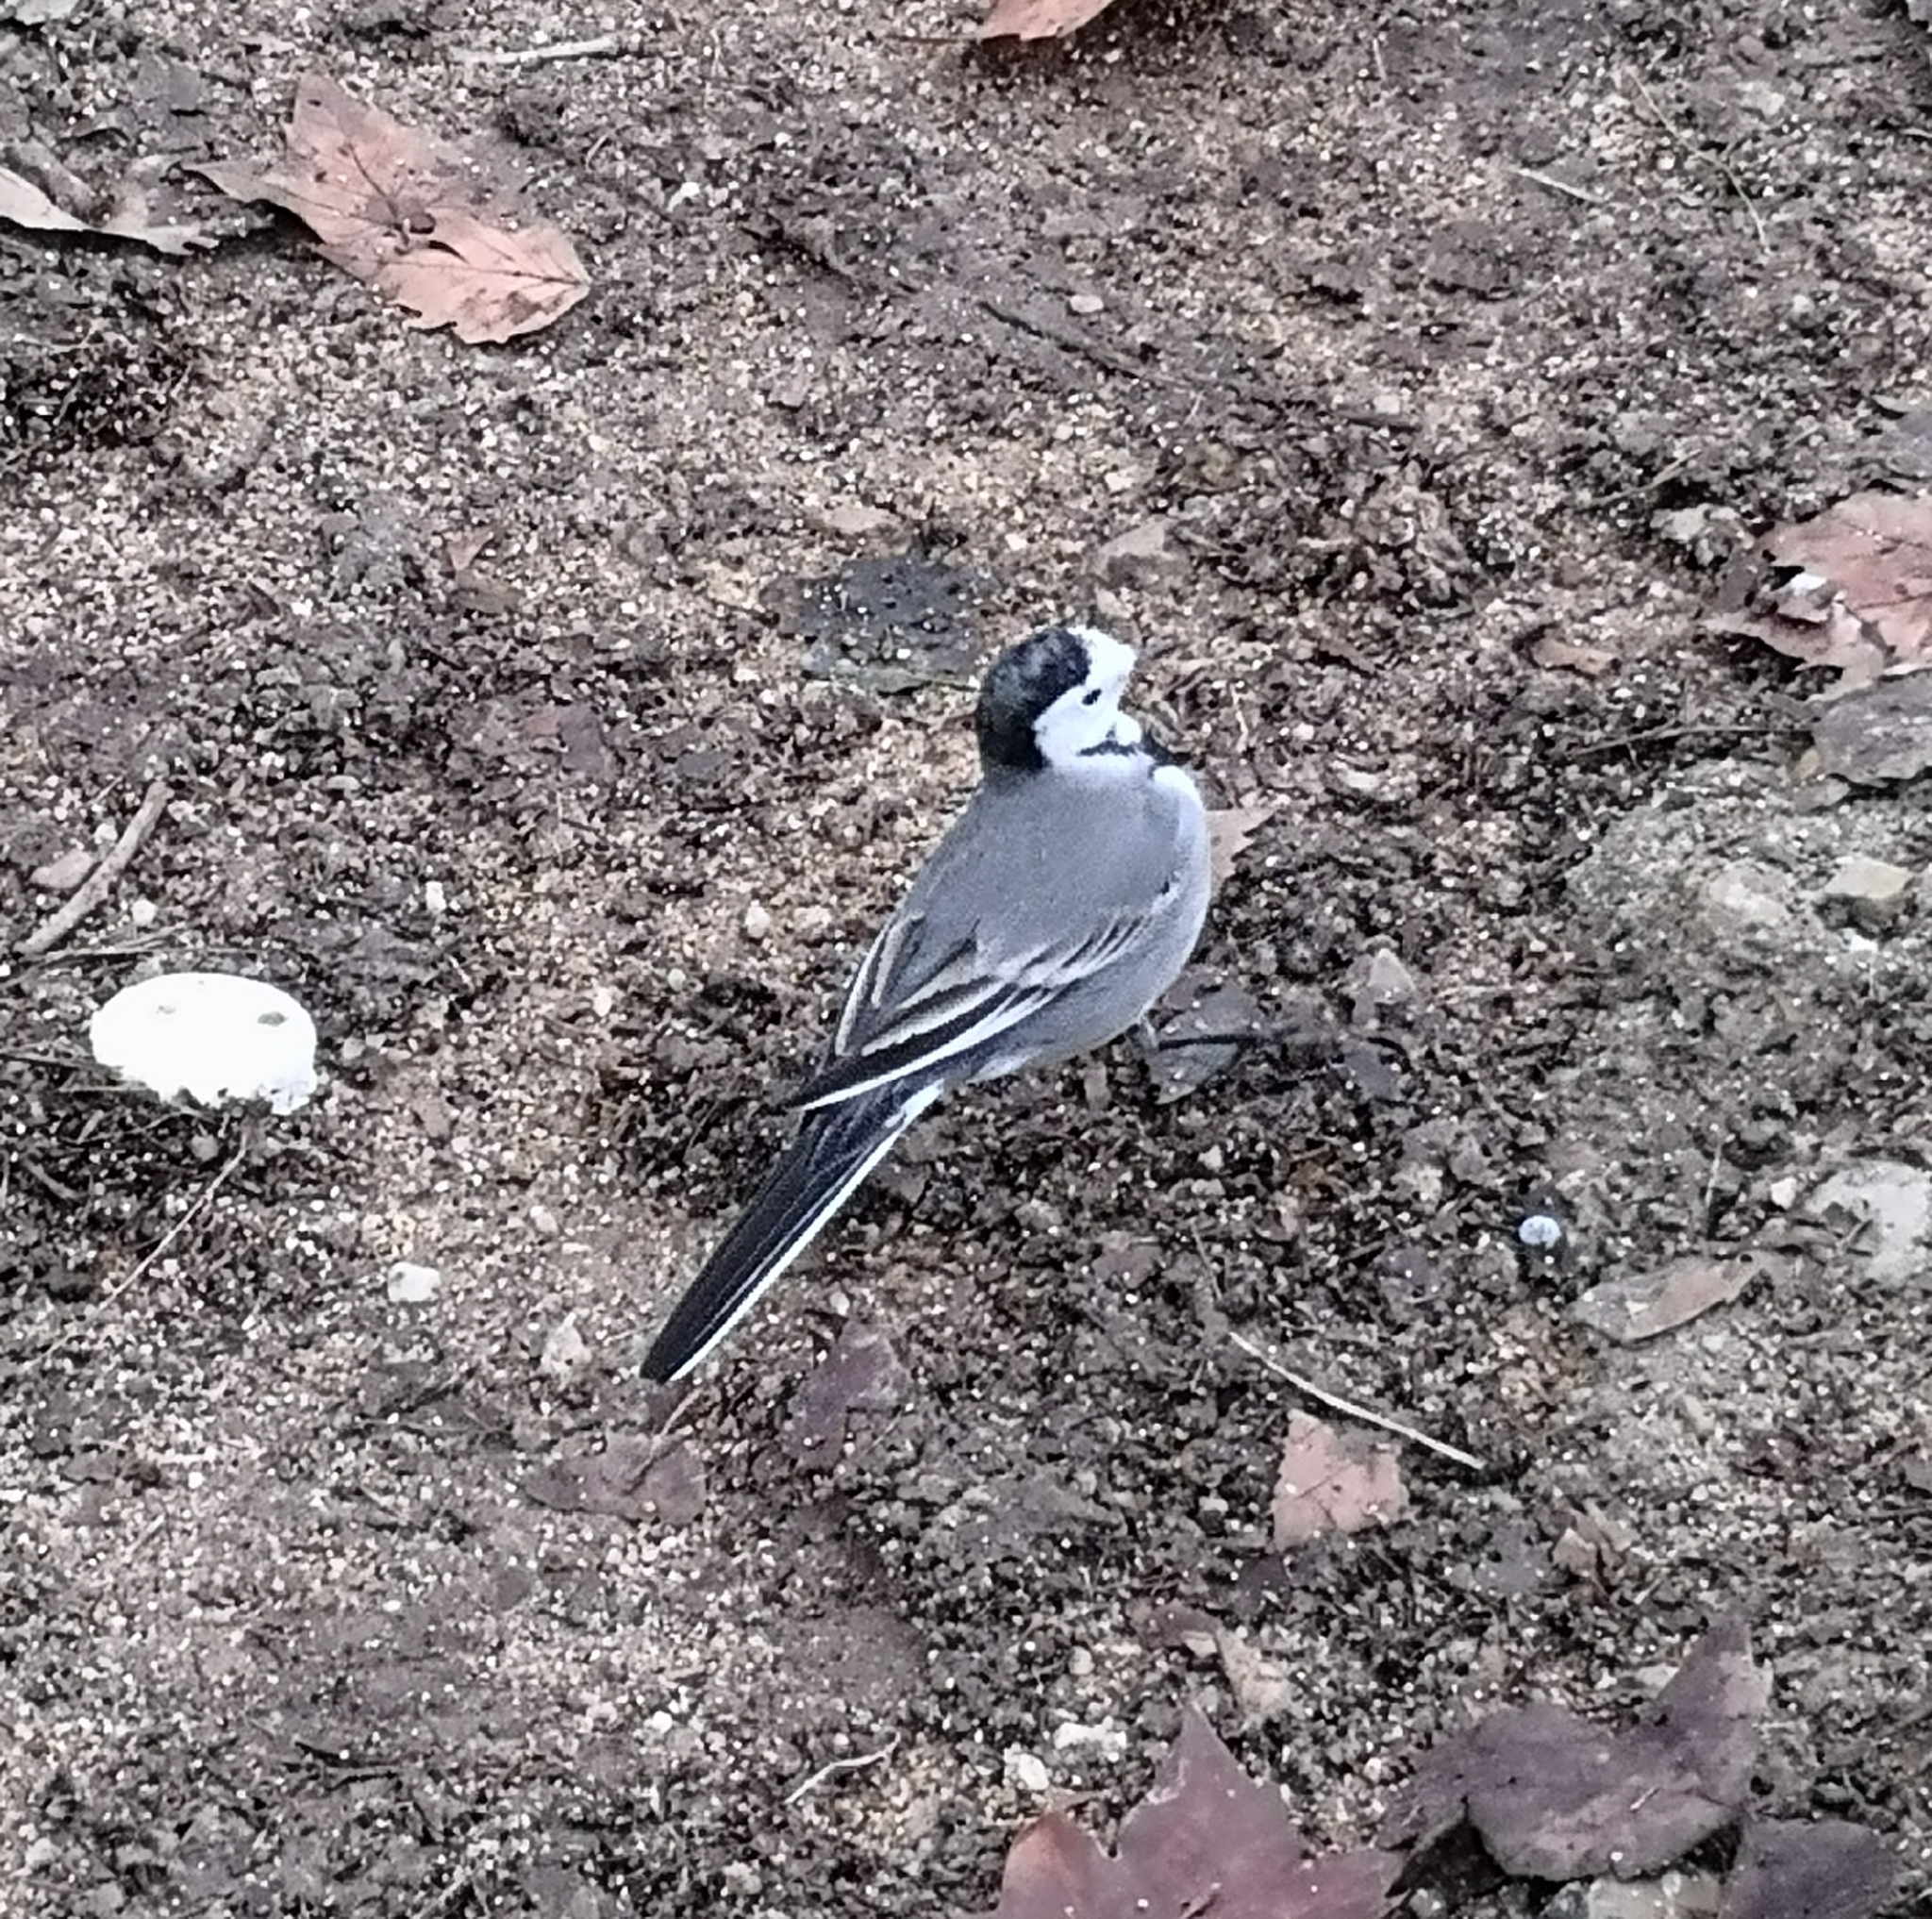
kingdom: Animalia
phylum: Chordata
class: Aves
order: Passeriformes
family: Motacillidae
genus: Motacilla
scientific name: Motacilla alba
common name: White wagtail
